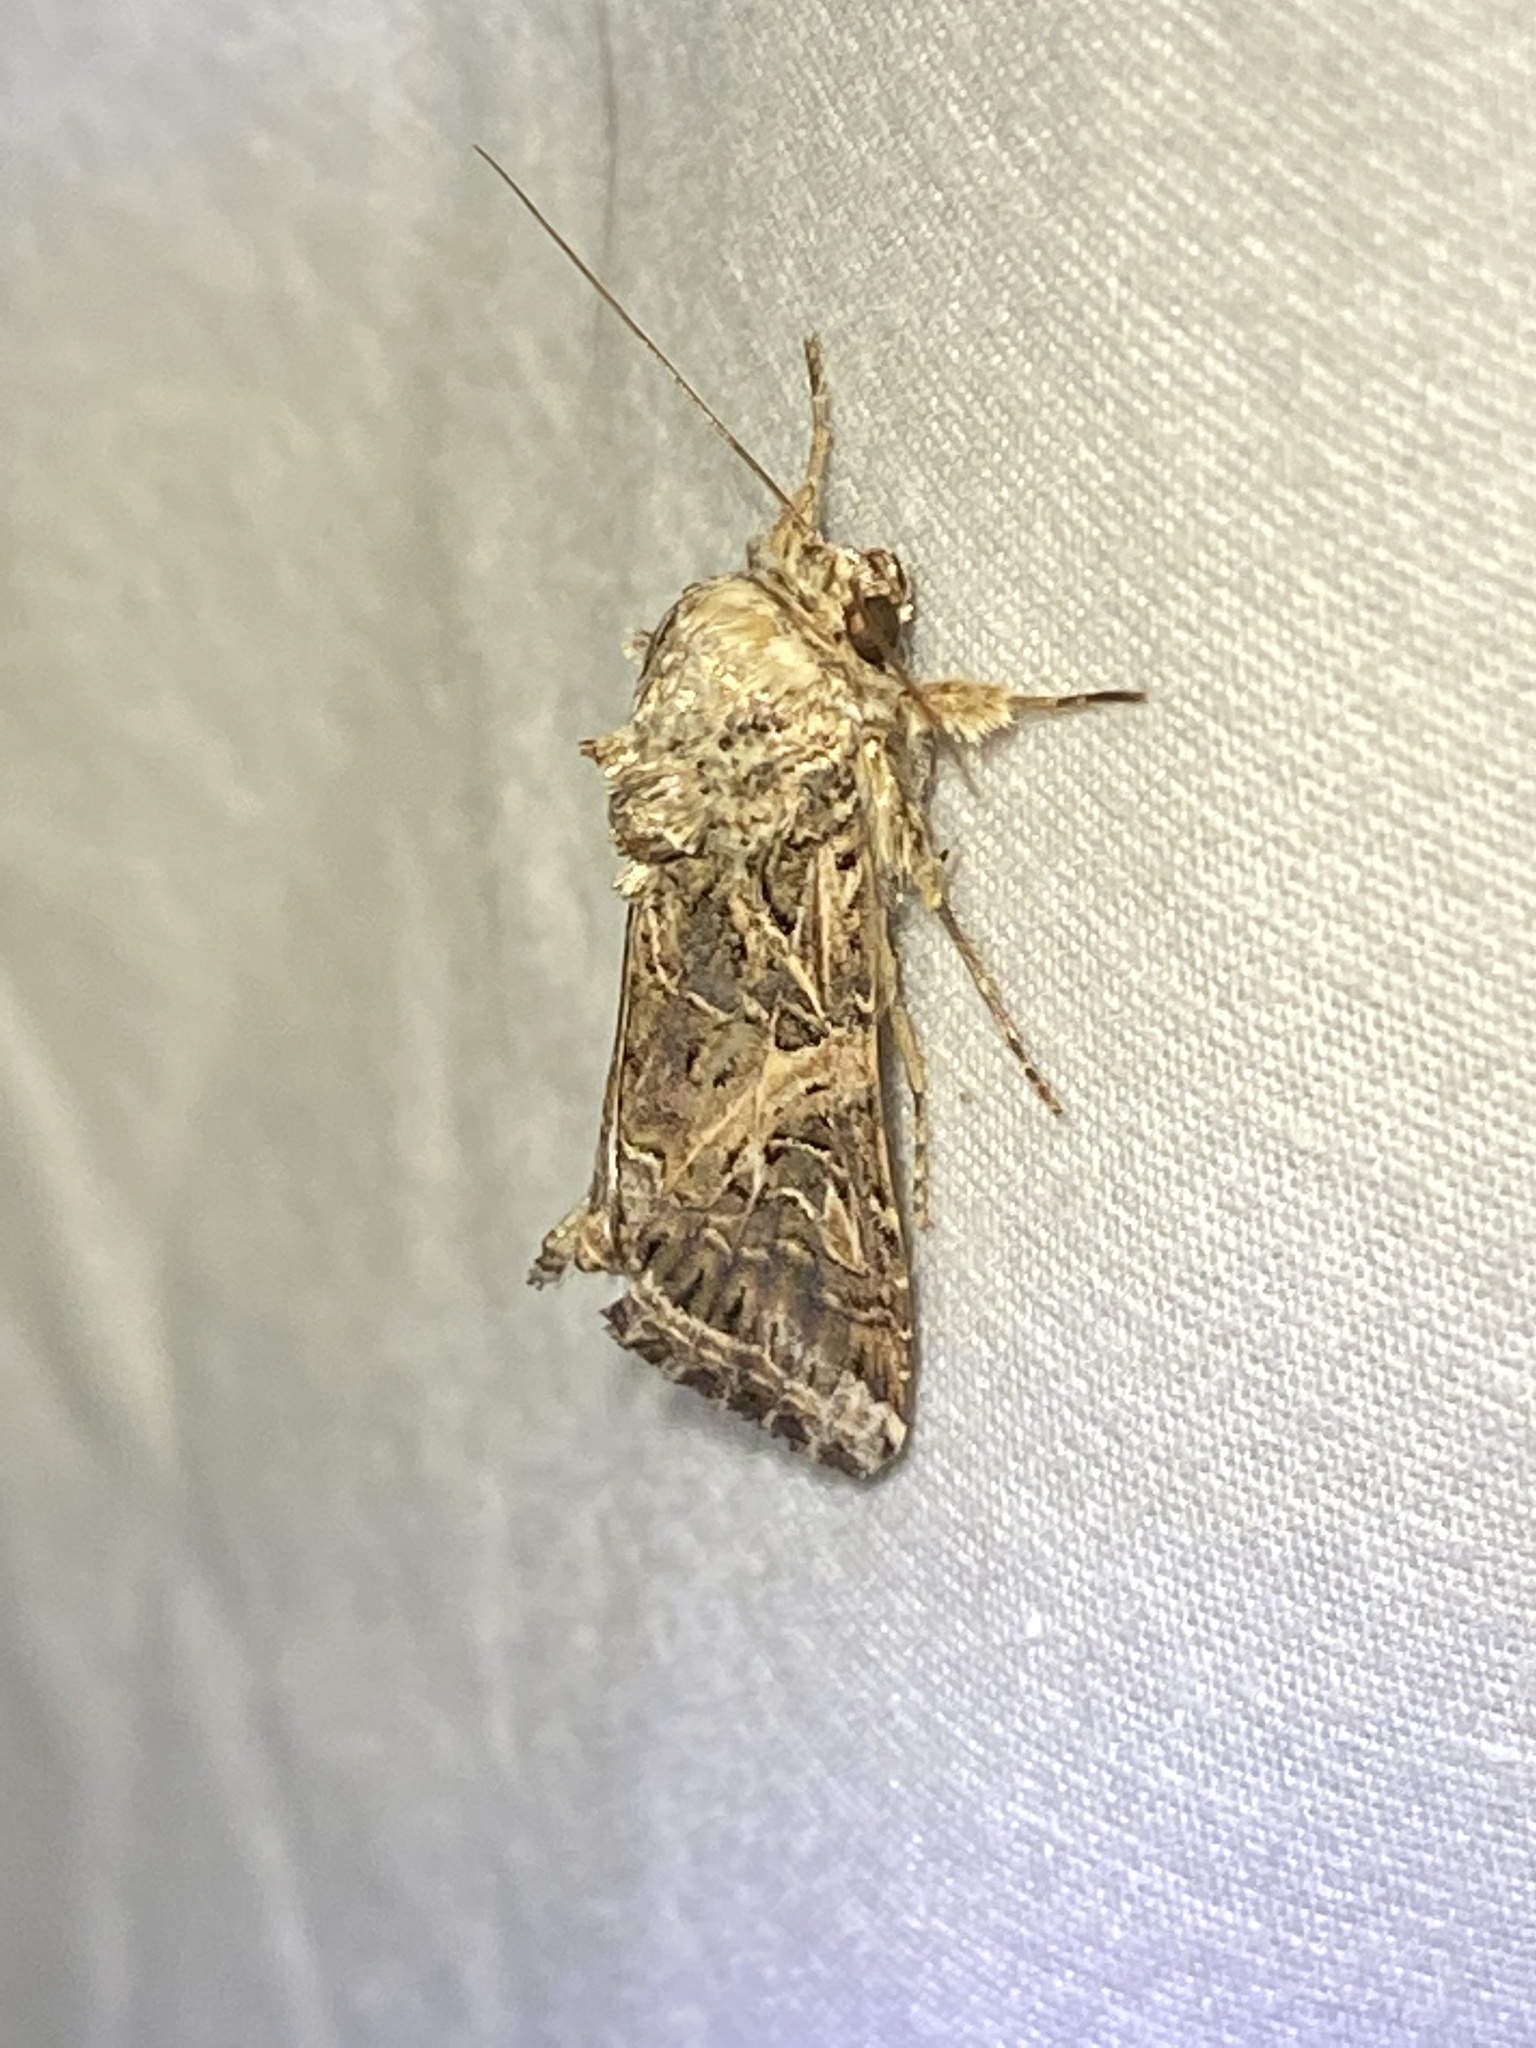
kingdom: Animalia
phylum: Arthropoda
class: Insecta
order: Lepidoptera
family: Noctuidae
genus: Spodoptera
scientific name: Spodoptera ornithogalli
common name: Yellow-striped armyworm
